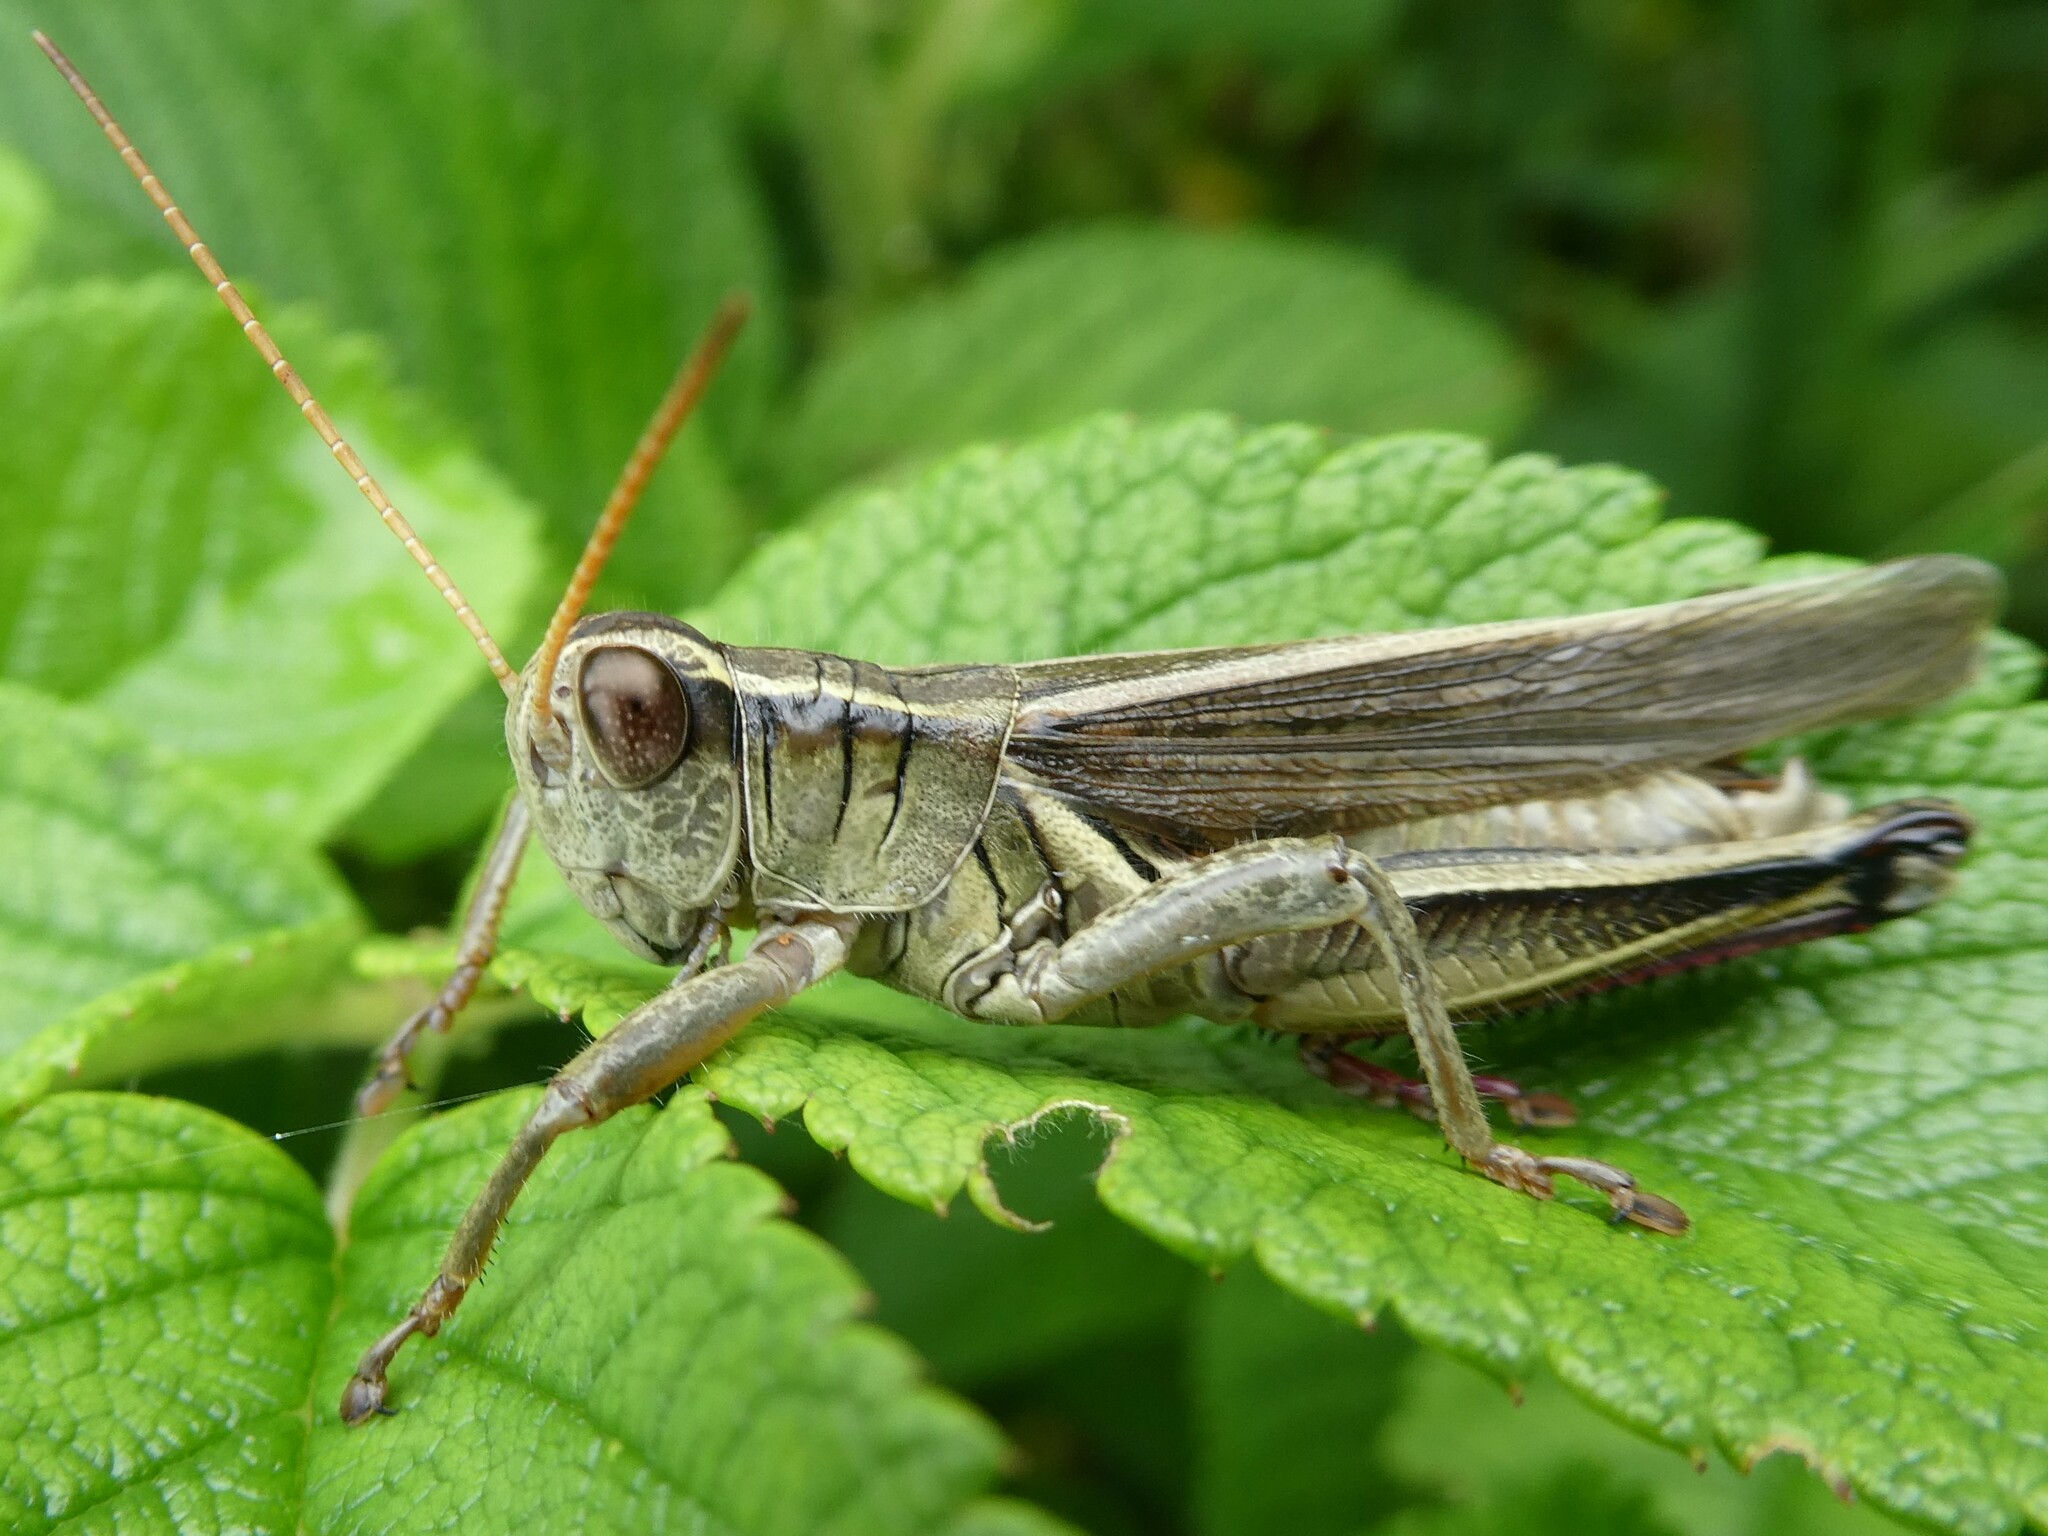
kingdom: Animalia
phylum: Arthropoda
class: Insecta
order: Orthoptera
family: Acrididae
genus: Melanoplus
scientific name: Melanoplus bivittatus
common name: Two-striped grasshopper
